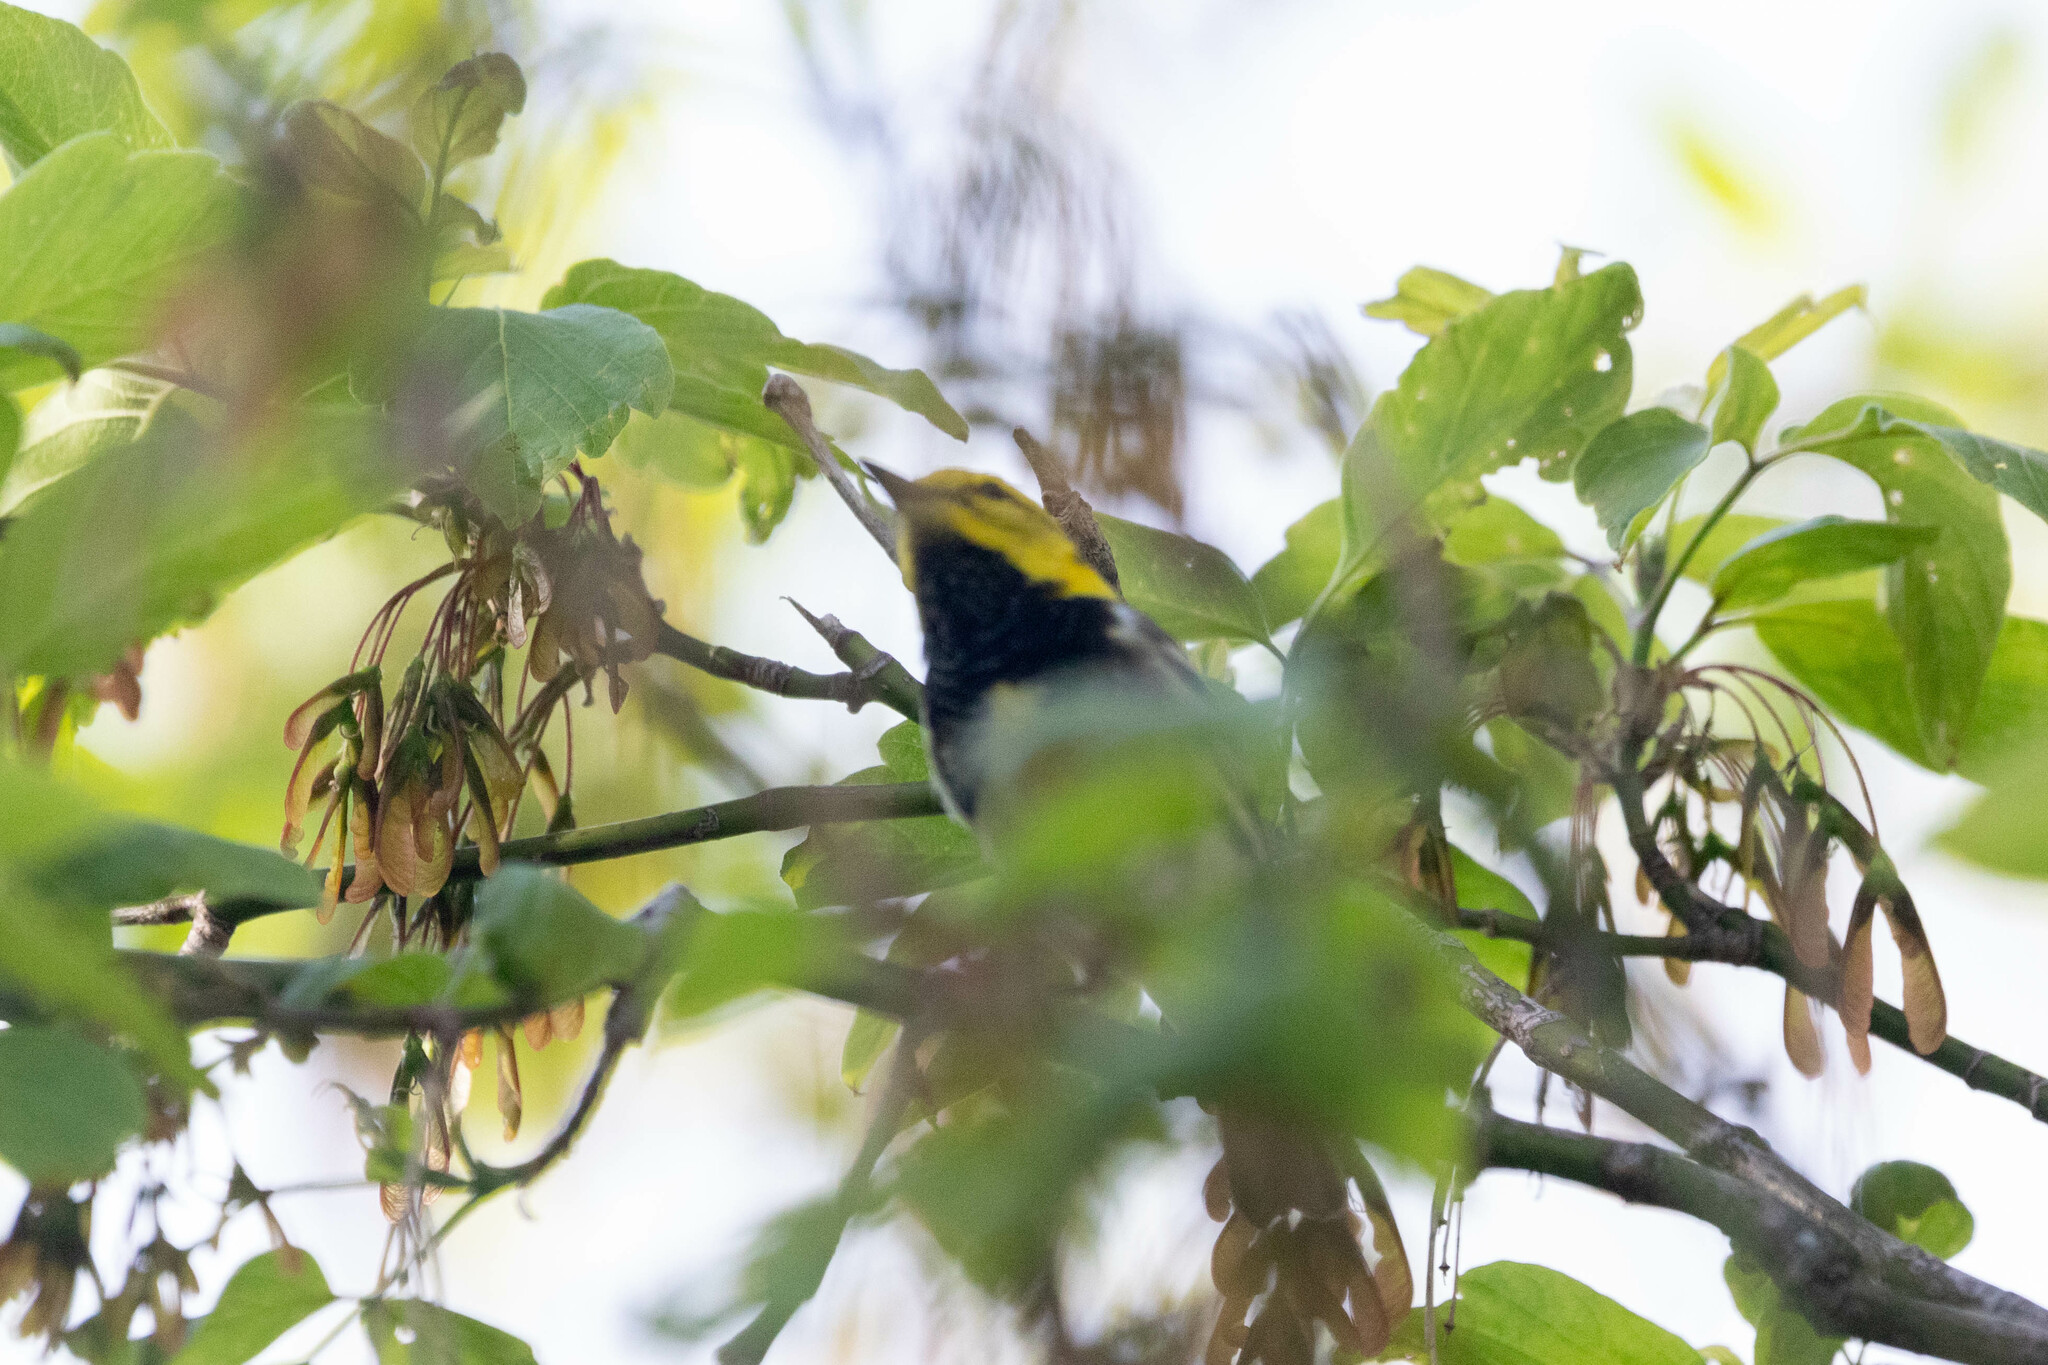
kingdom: Animalia
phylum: Chordata
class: Aves
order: Passeriformes
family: Parulidae
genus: Setophaga
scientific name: Setophaga virens
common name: Black-throated green warbler
